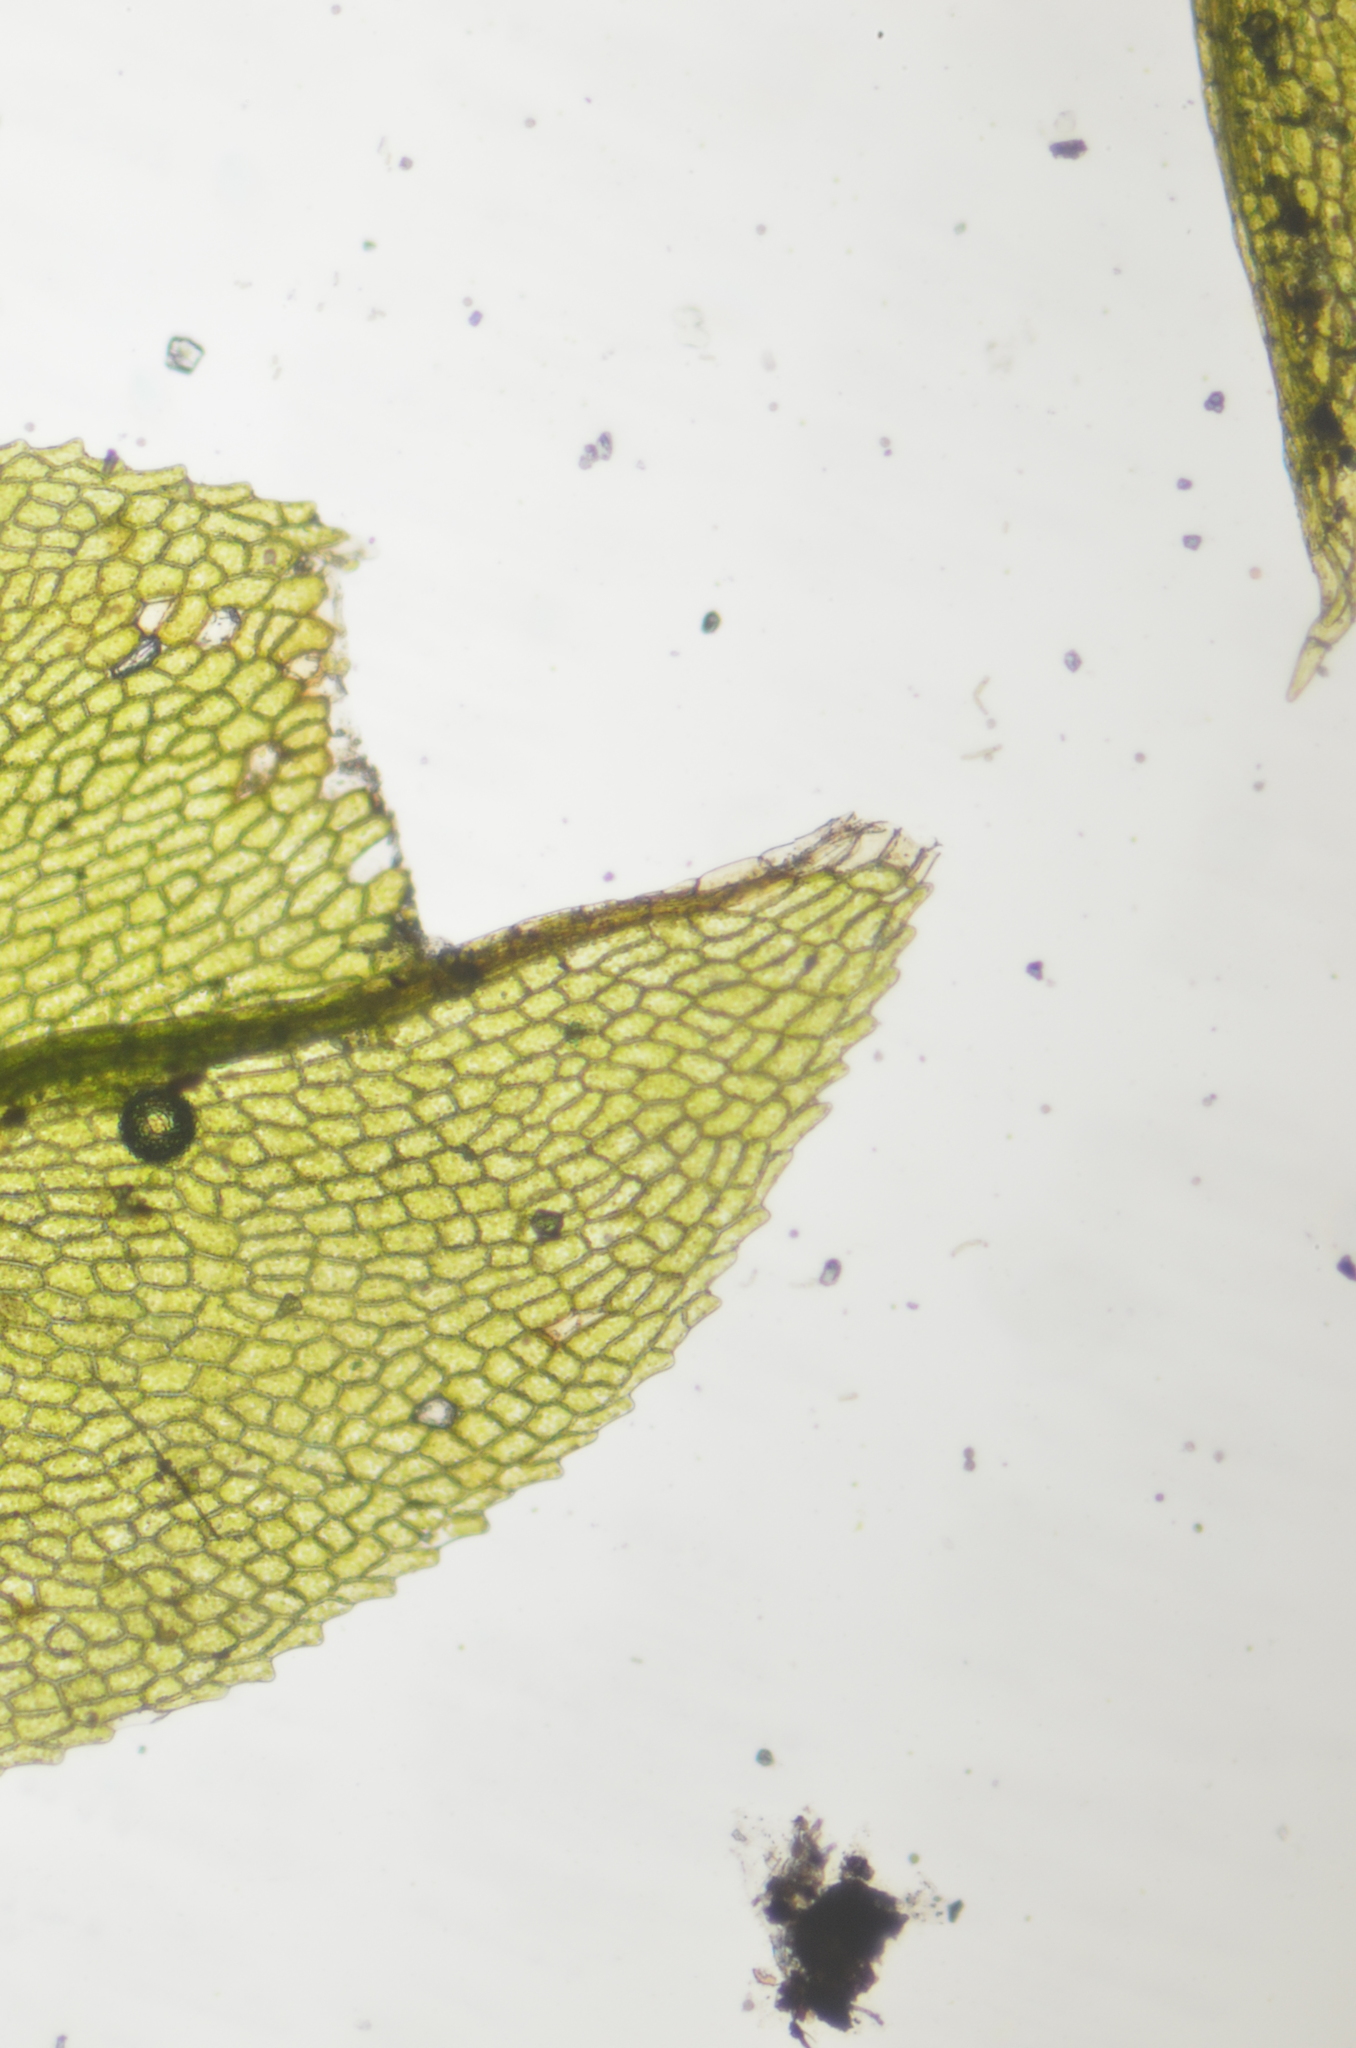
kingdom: Plantae
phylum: Bryophyta
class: Bryopsida
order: Splachnales
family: Splachnaceae
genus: Tayloria
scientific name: Tayloria serrata
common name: Serrate trumpet moss
